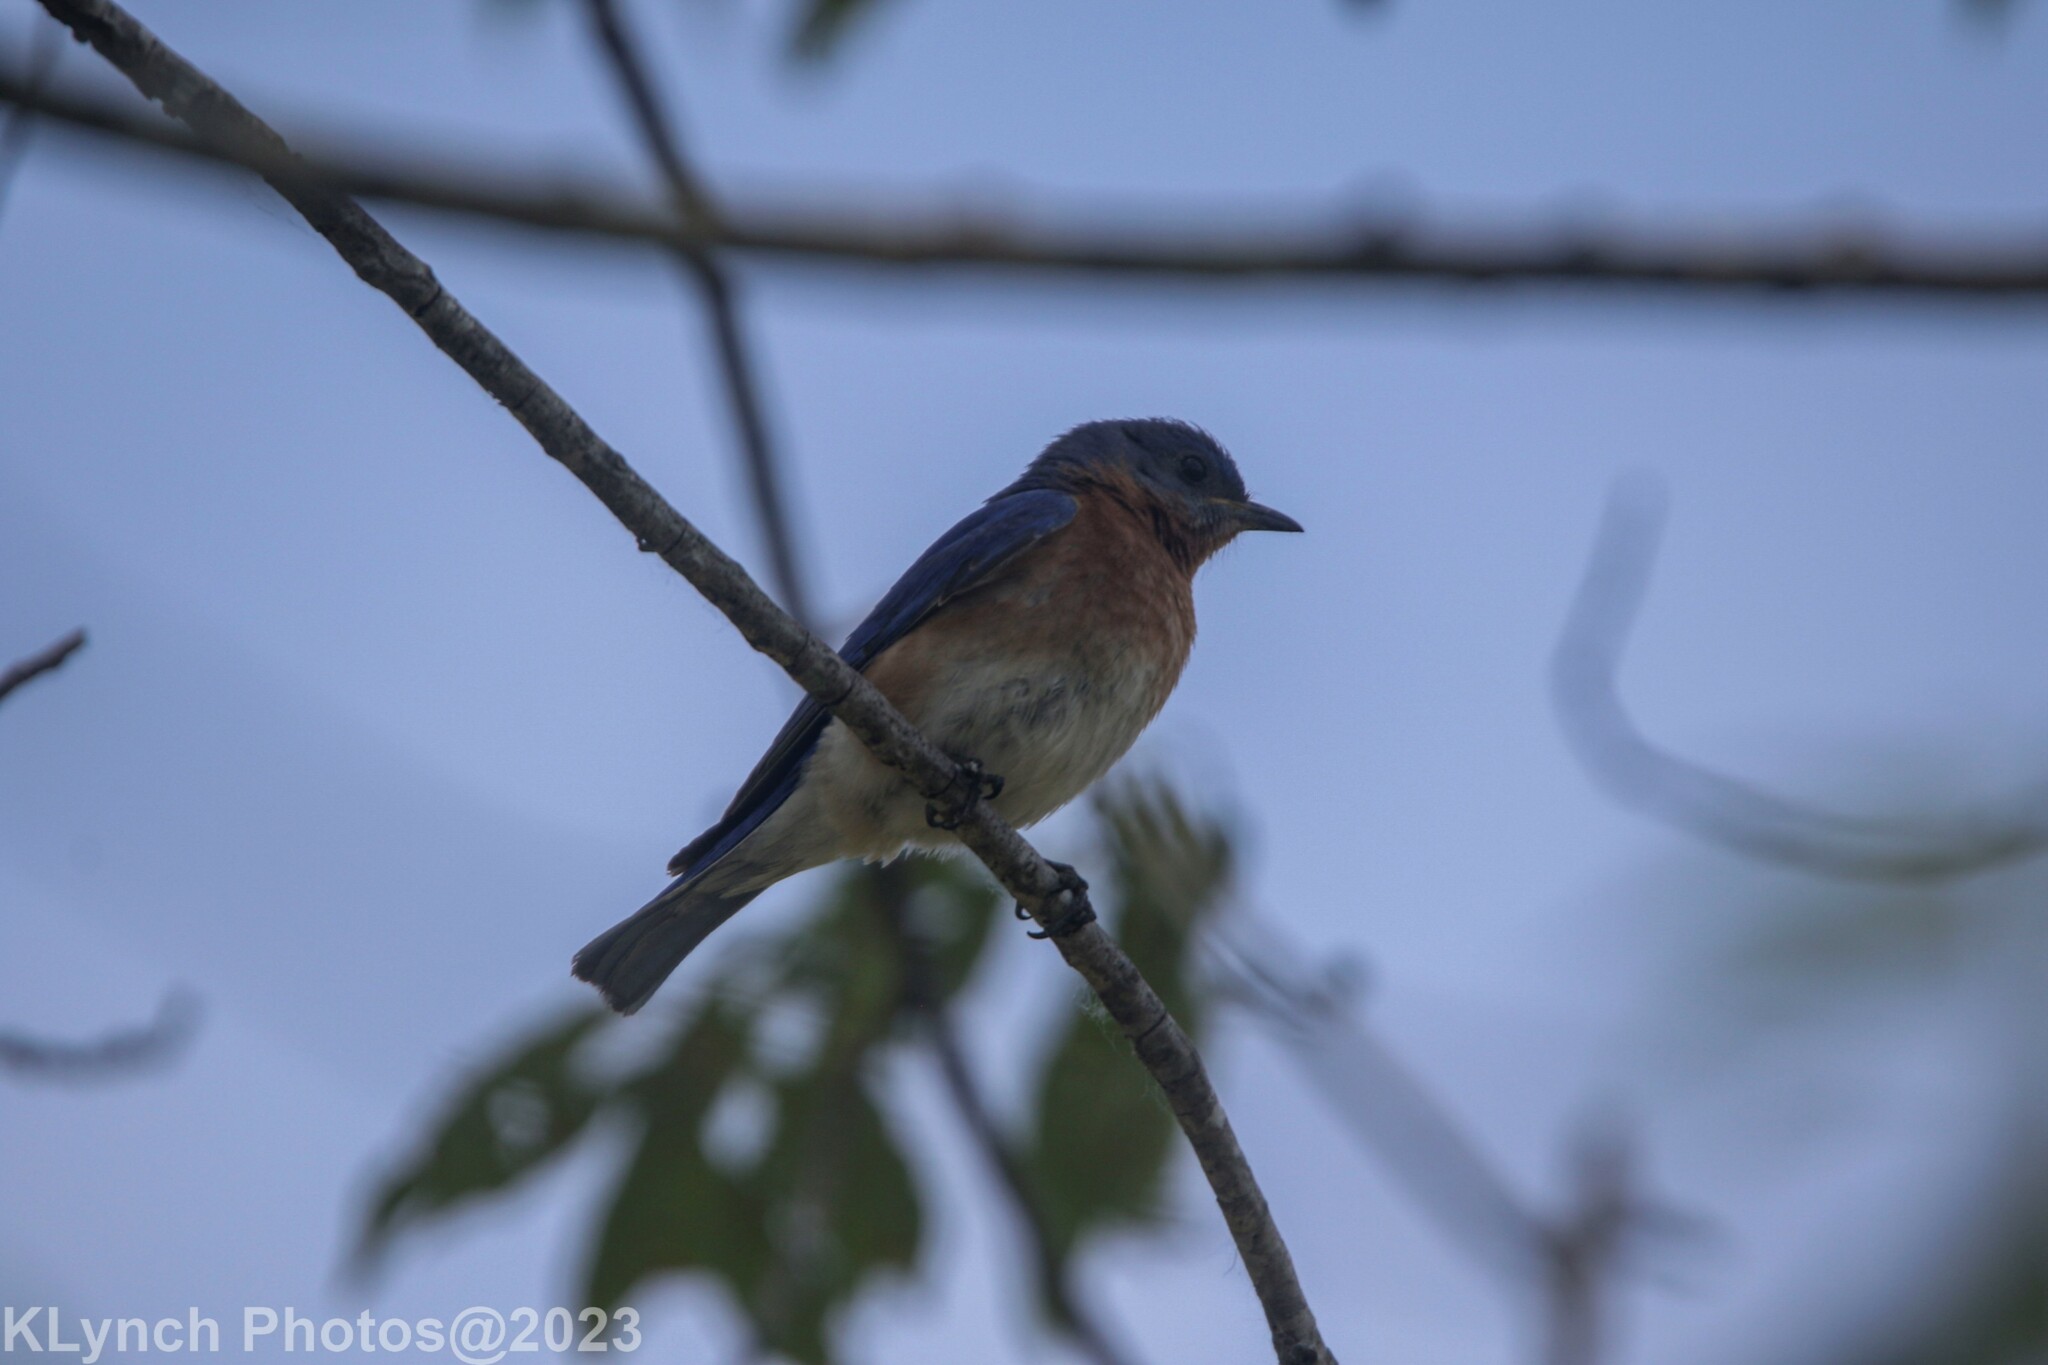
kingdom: Animalia
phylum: Chordata
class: Aves
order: Passeriformes
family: Turdidae
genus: Sialia
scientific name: Sialia sialis
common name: Eastern bluebird
